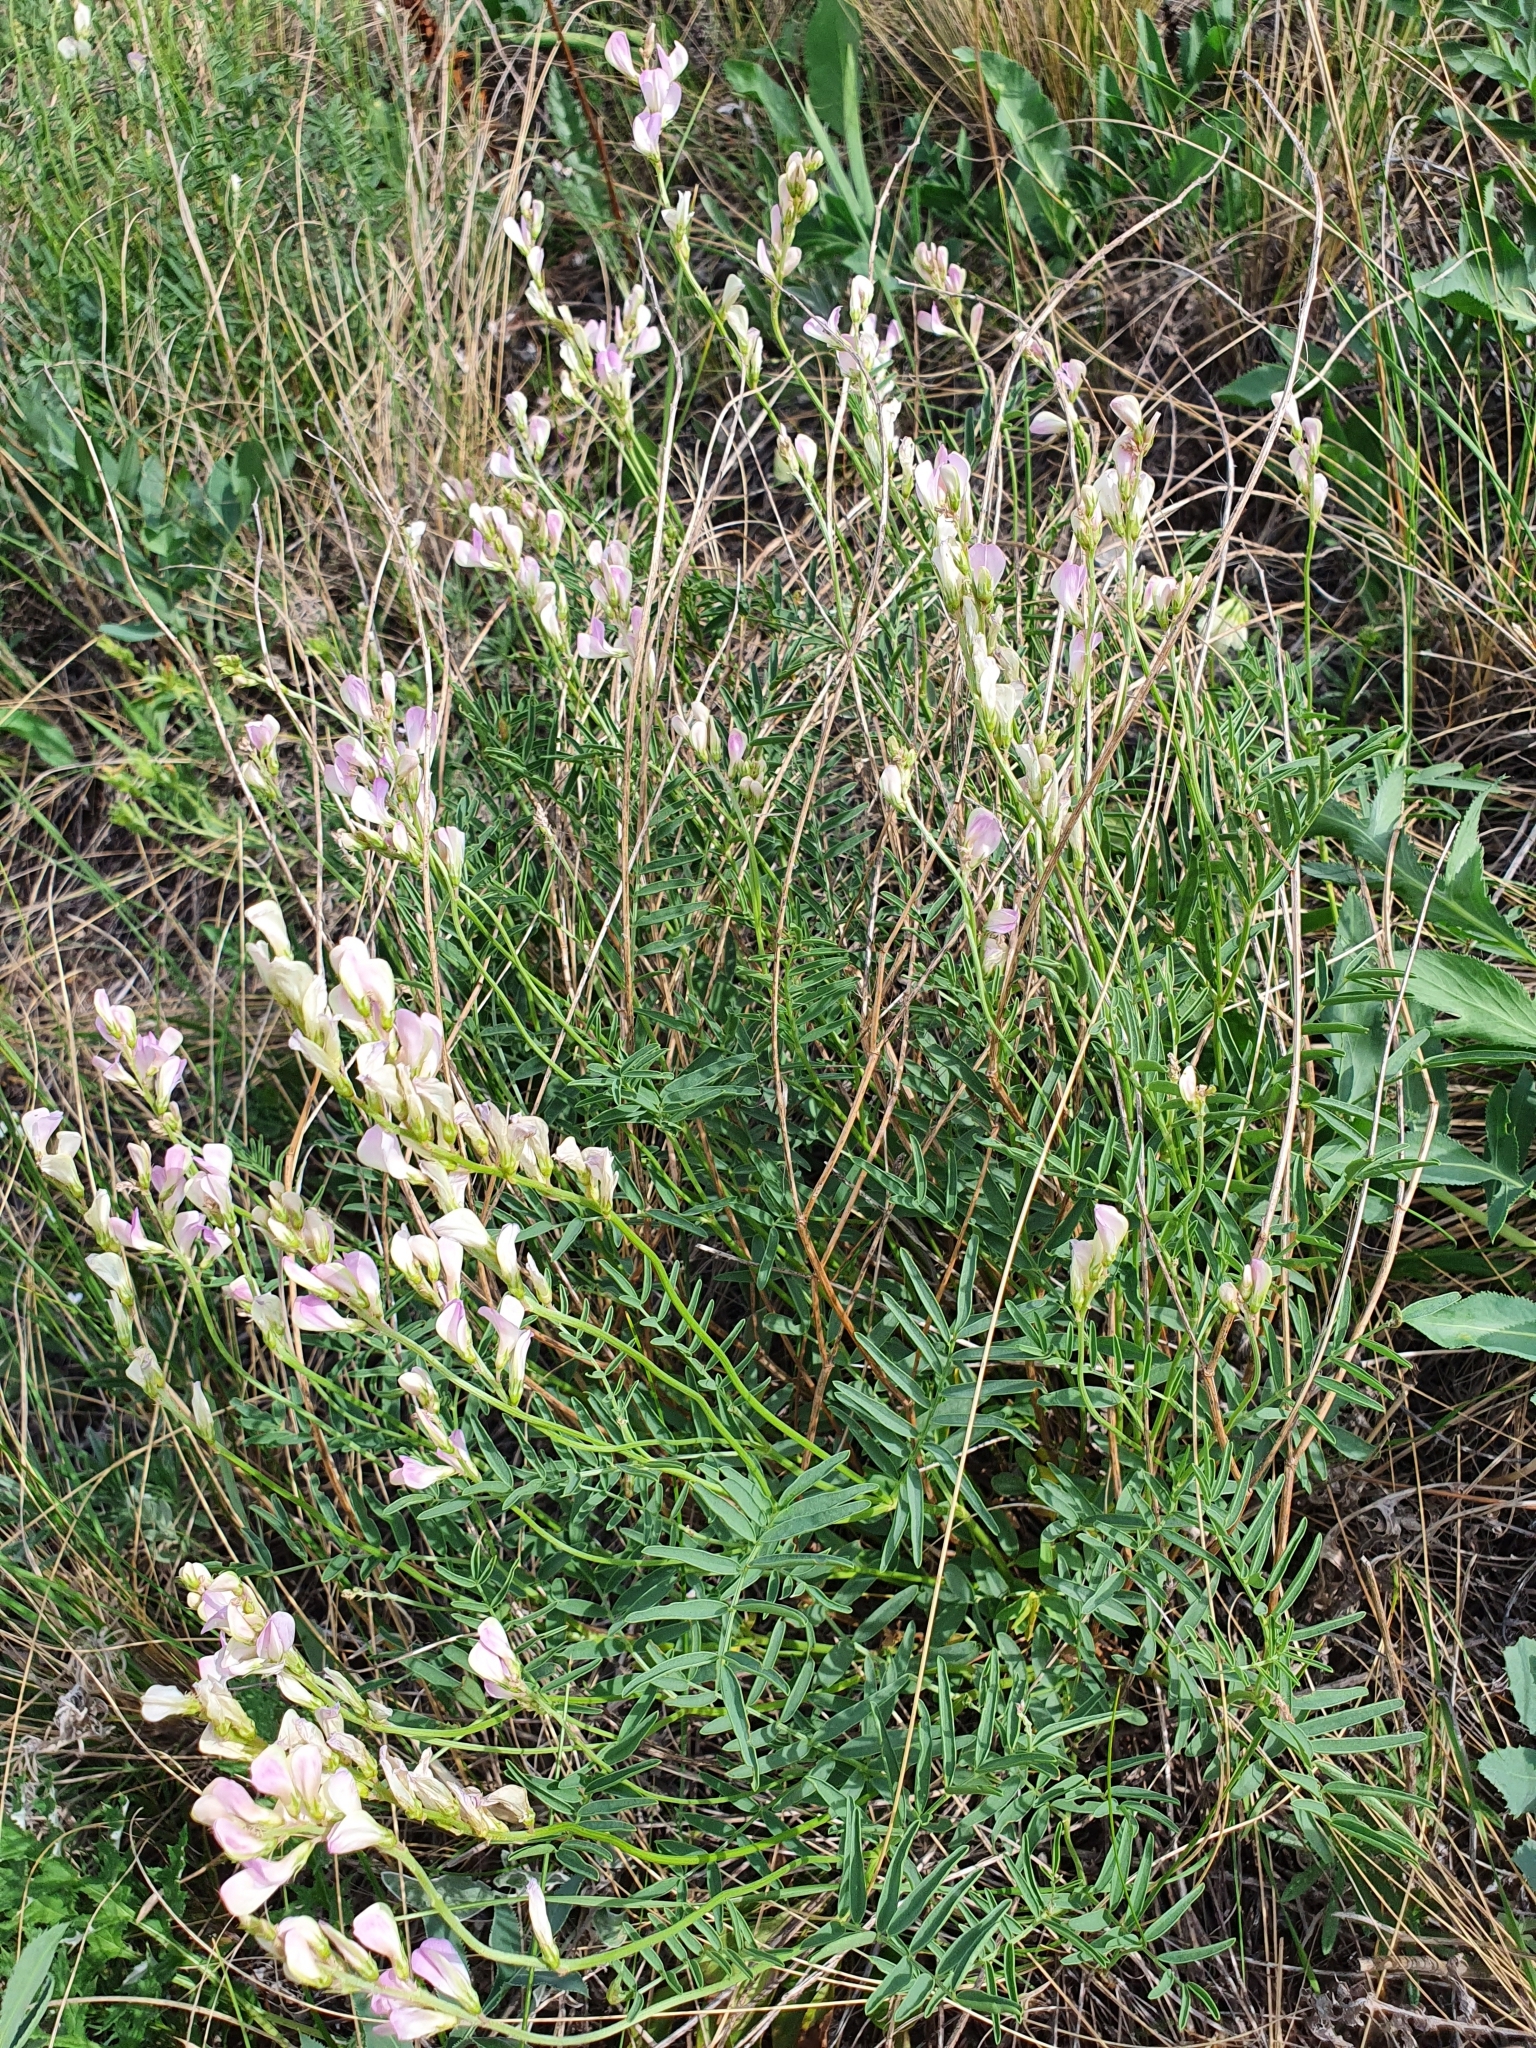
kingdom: Plantae
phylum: Tracheophyta
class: Magnoliopsida
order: Fabales
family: Fabaceae
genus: Hedysarum
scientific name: Hedysarum razoumovianum
